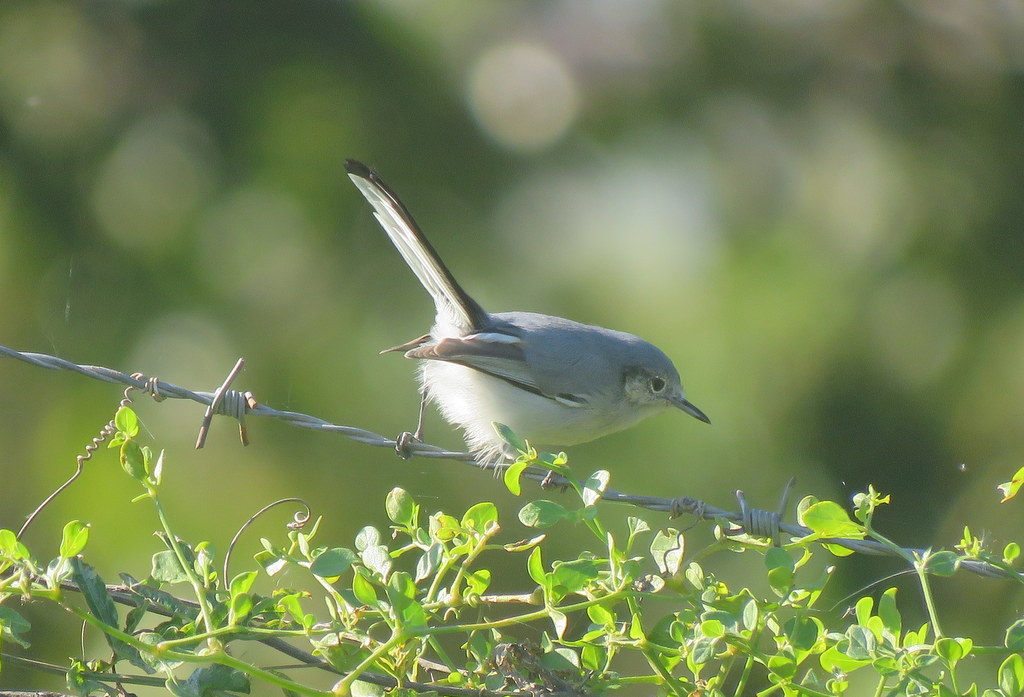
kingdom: Animalia
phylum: Chordata
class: Aves
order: Passeriformes
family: Polioptilidae
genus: Polioptila
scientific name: Polioptila dumicola
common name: Masked gnatcatcher
